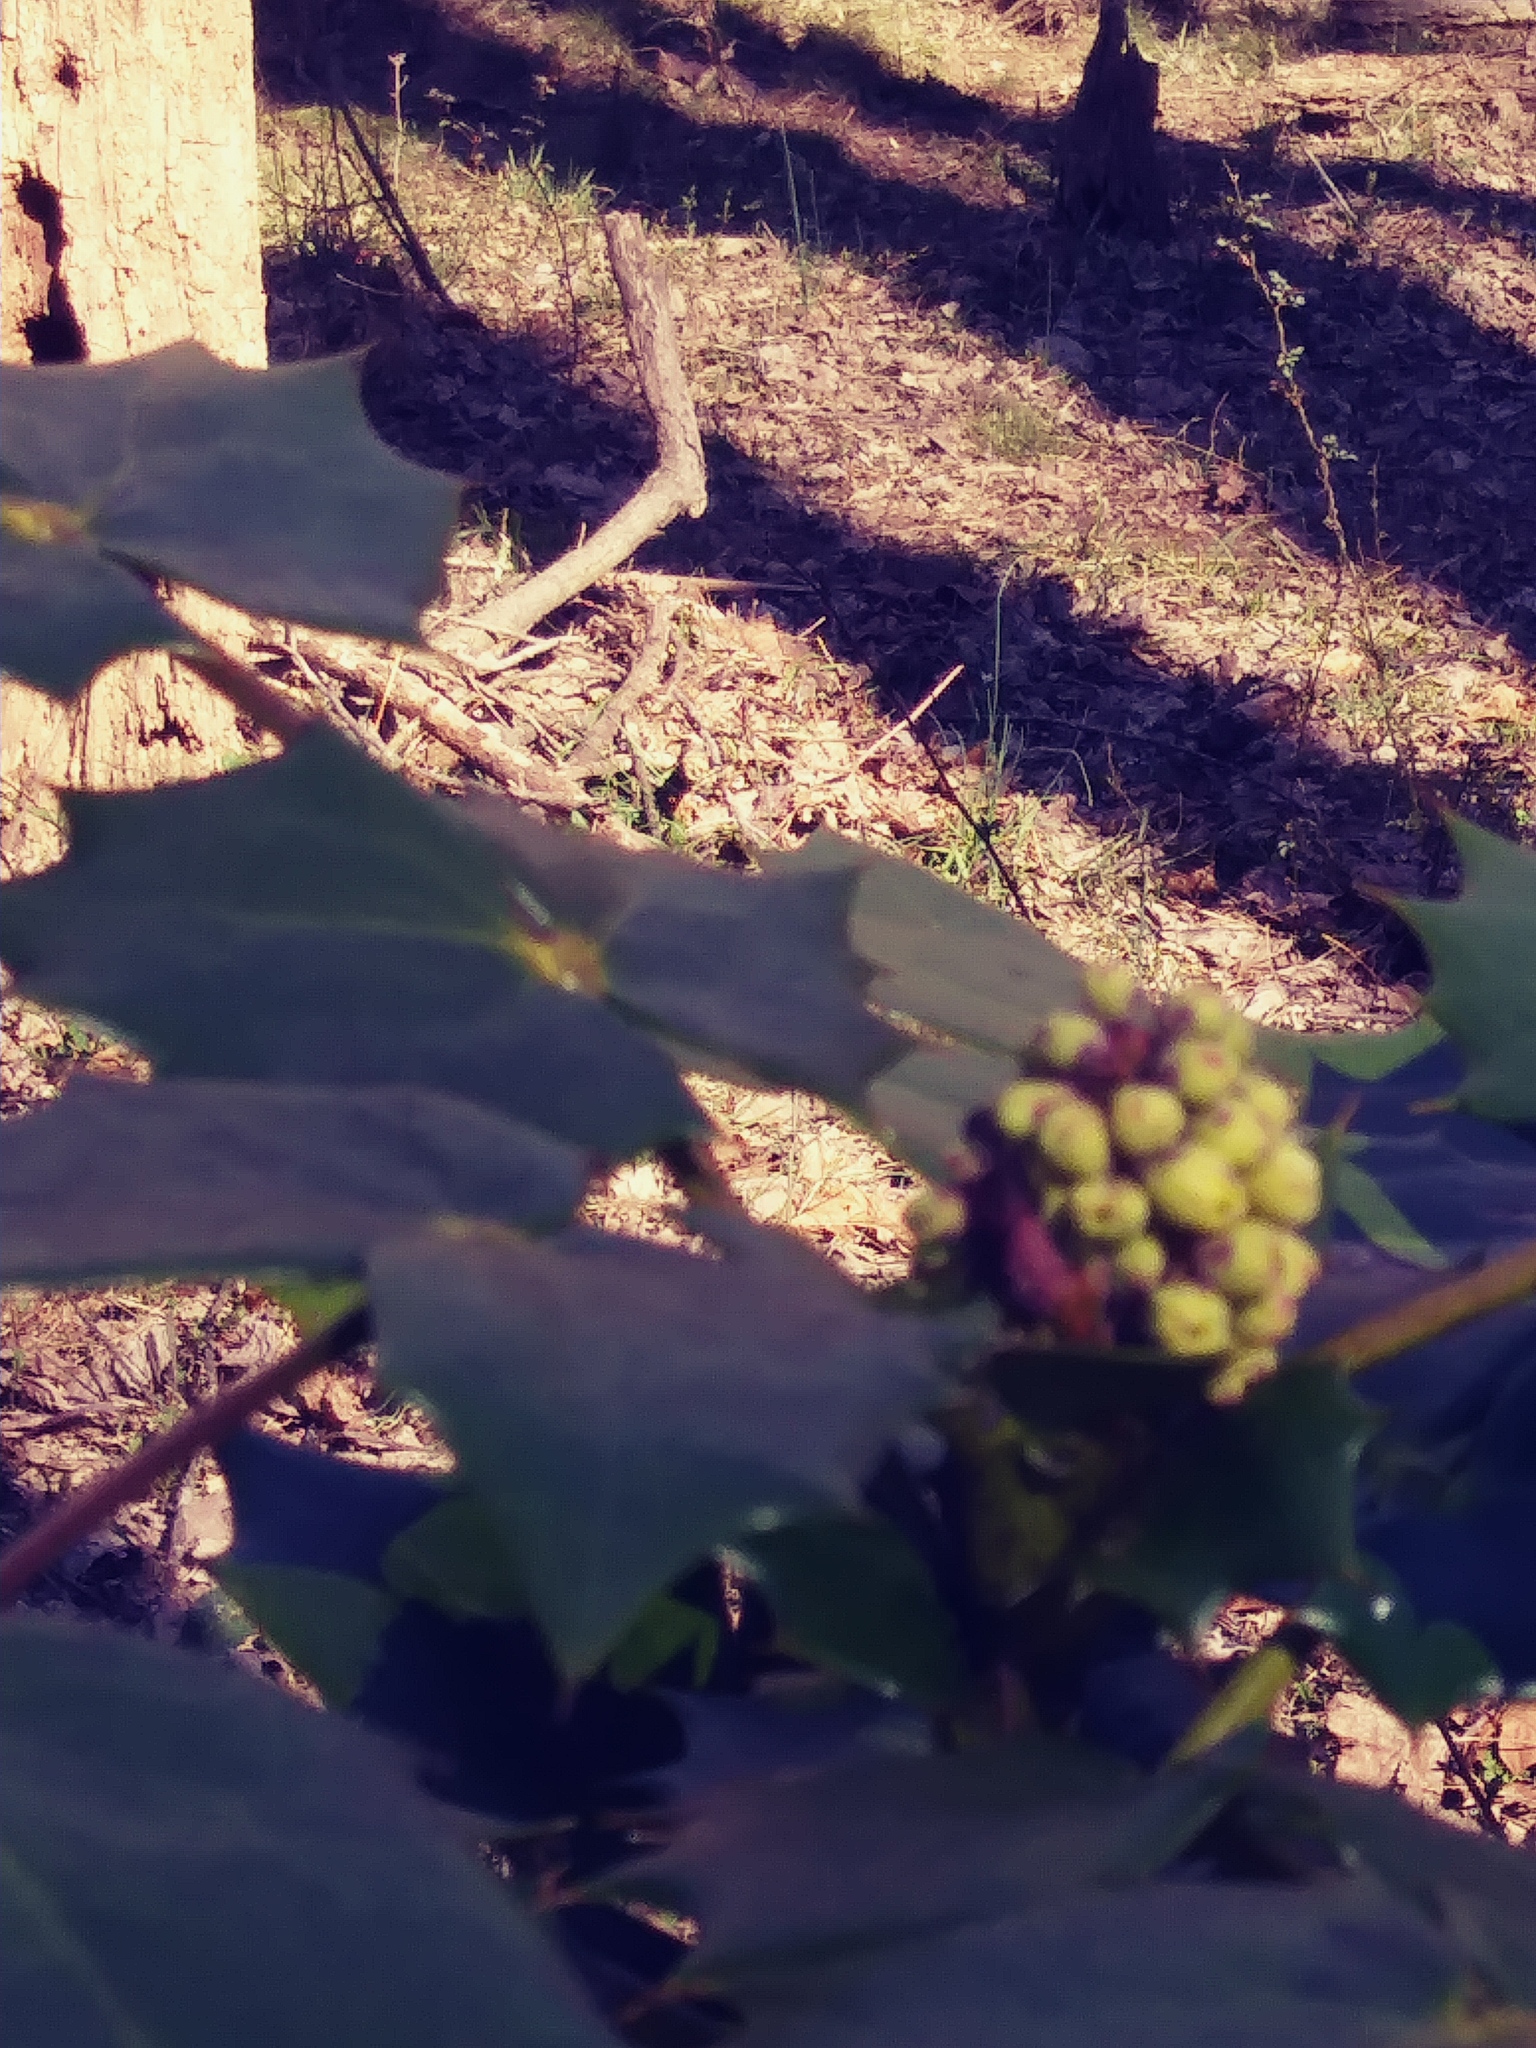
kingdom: Plantae
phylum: Tracheophyta
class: Magnoliopsida
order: Ranunculales
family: Berberidaceae
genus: Mahonia
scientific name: Mahonia bealei
